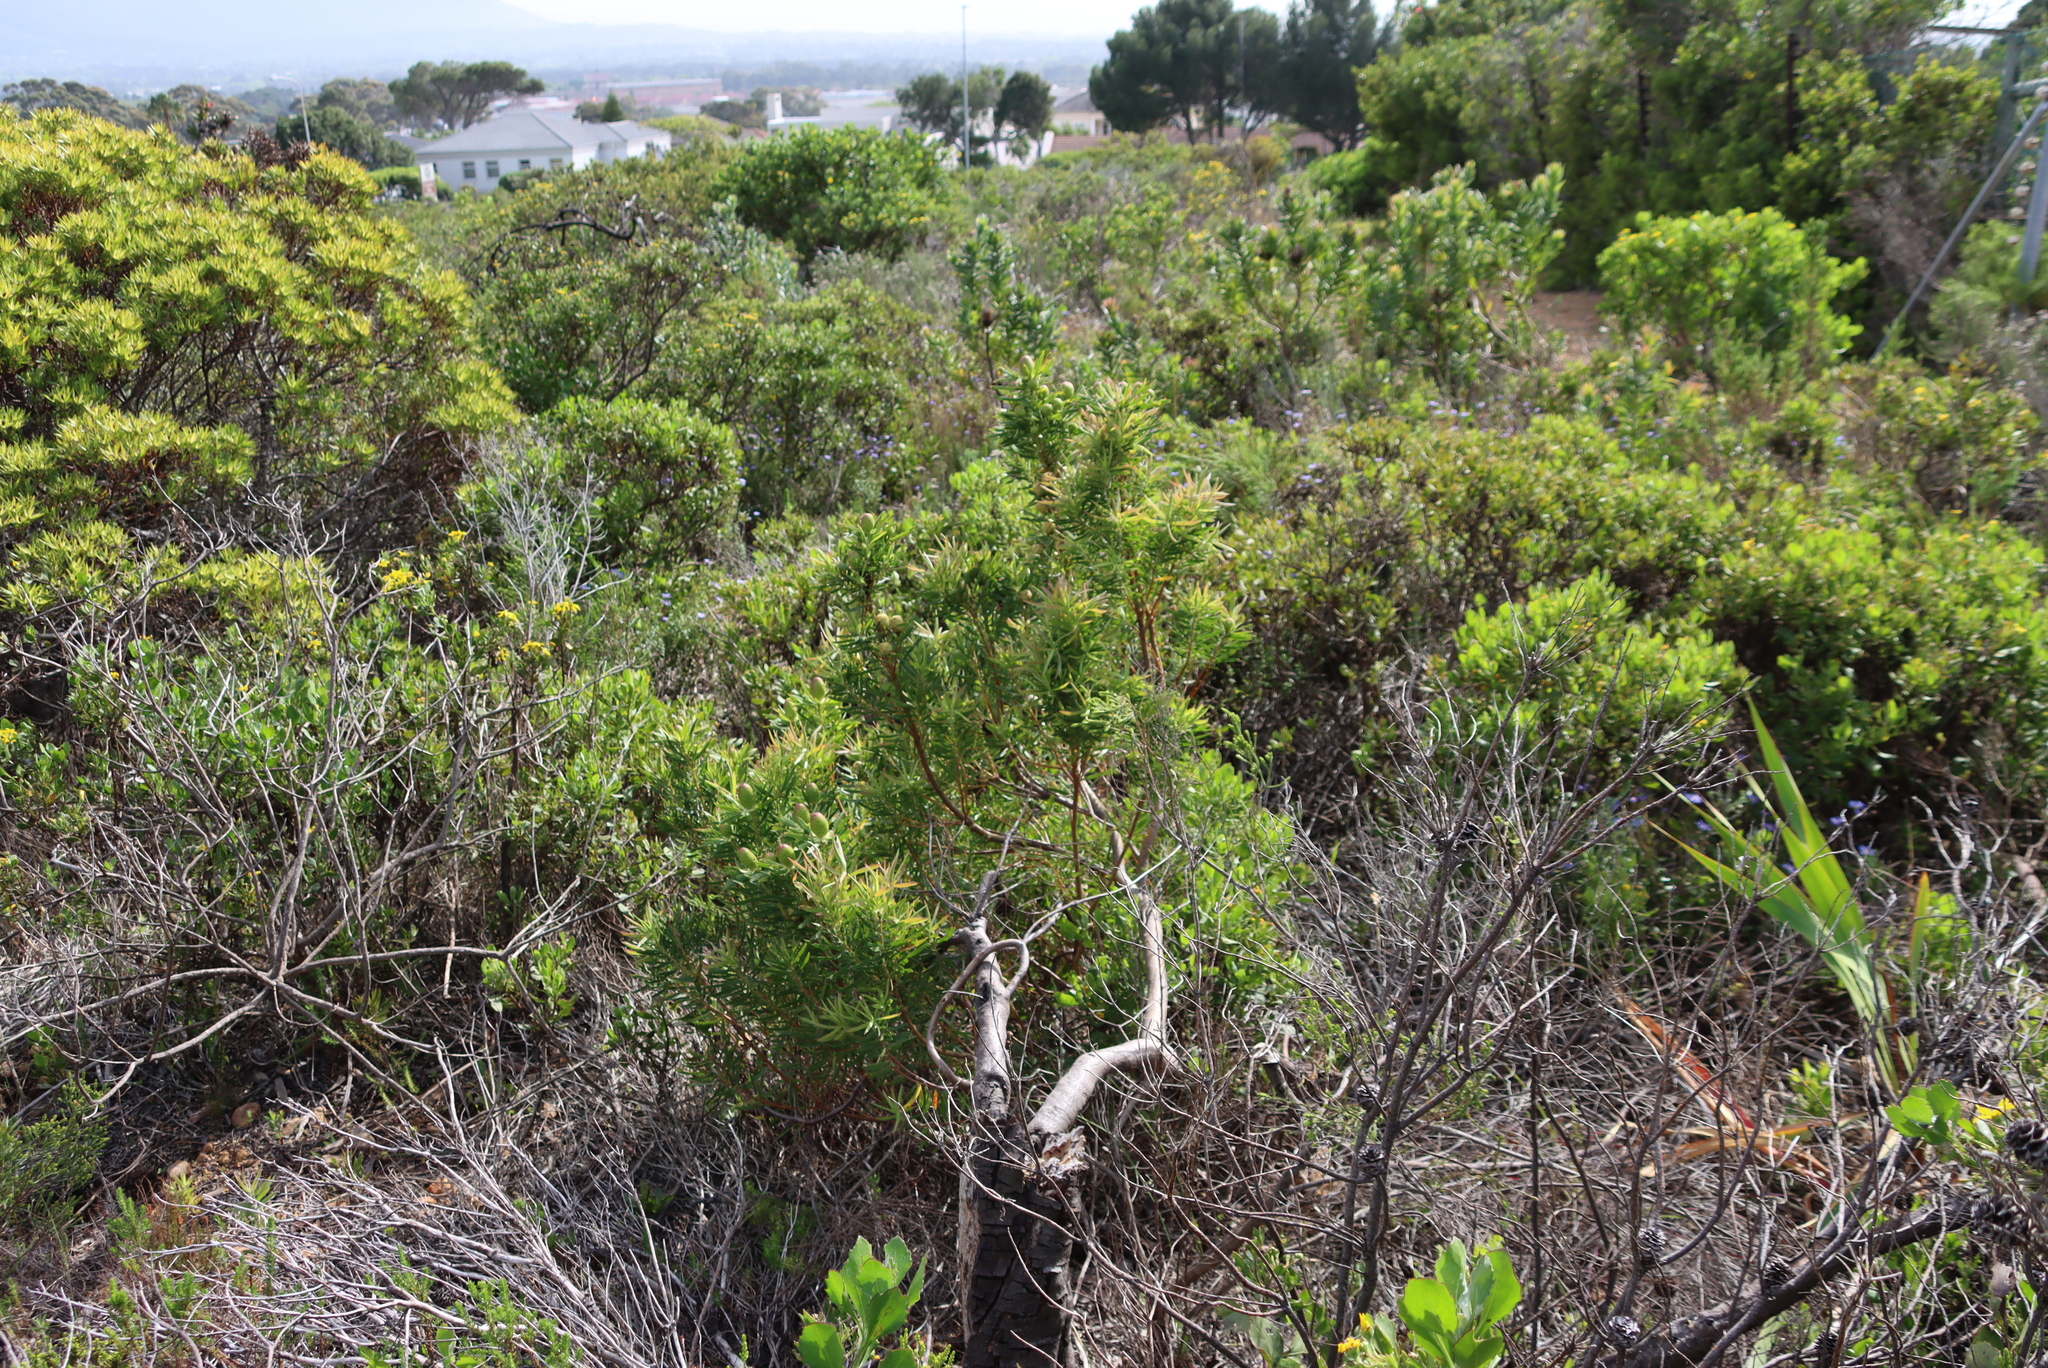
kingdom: Plantae
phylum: Tracheophyta
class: Magnoliopsida
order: Proteales
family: Proteaceae
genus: Leucadendron
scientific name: Leucadendron xanthoconus
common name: Sickle-leaf conebush
